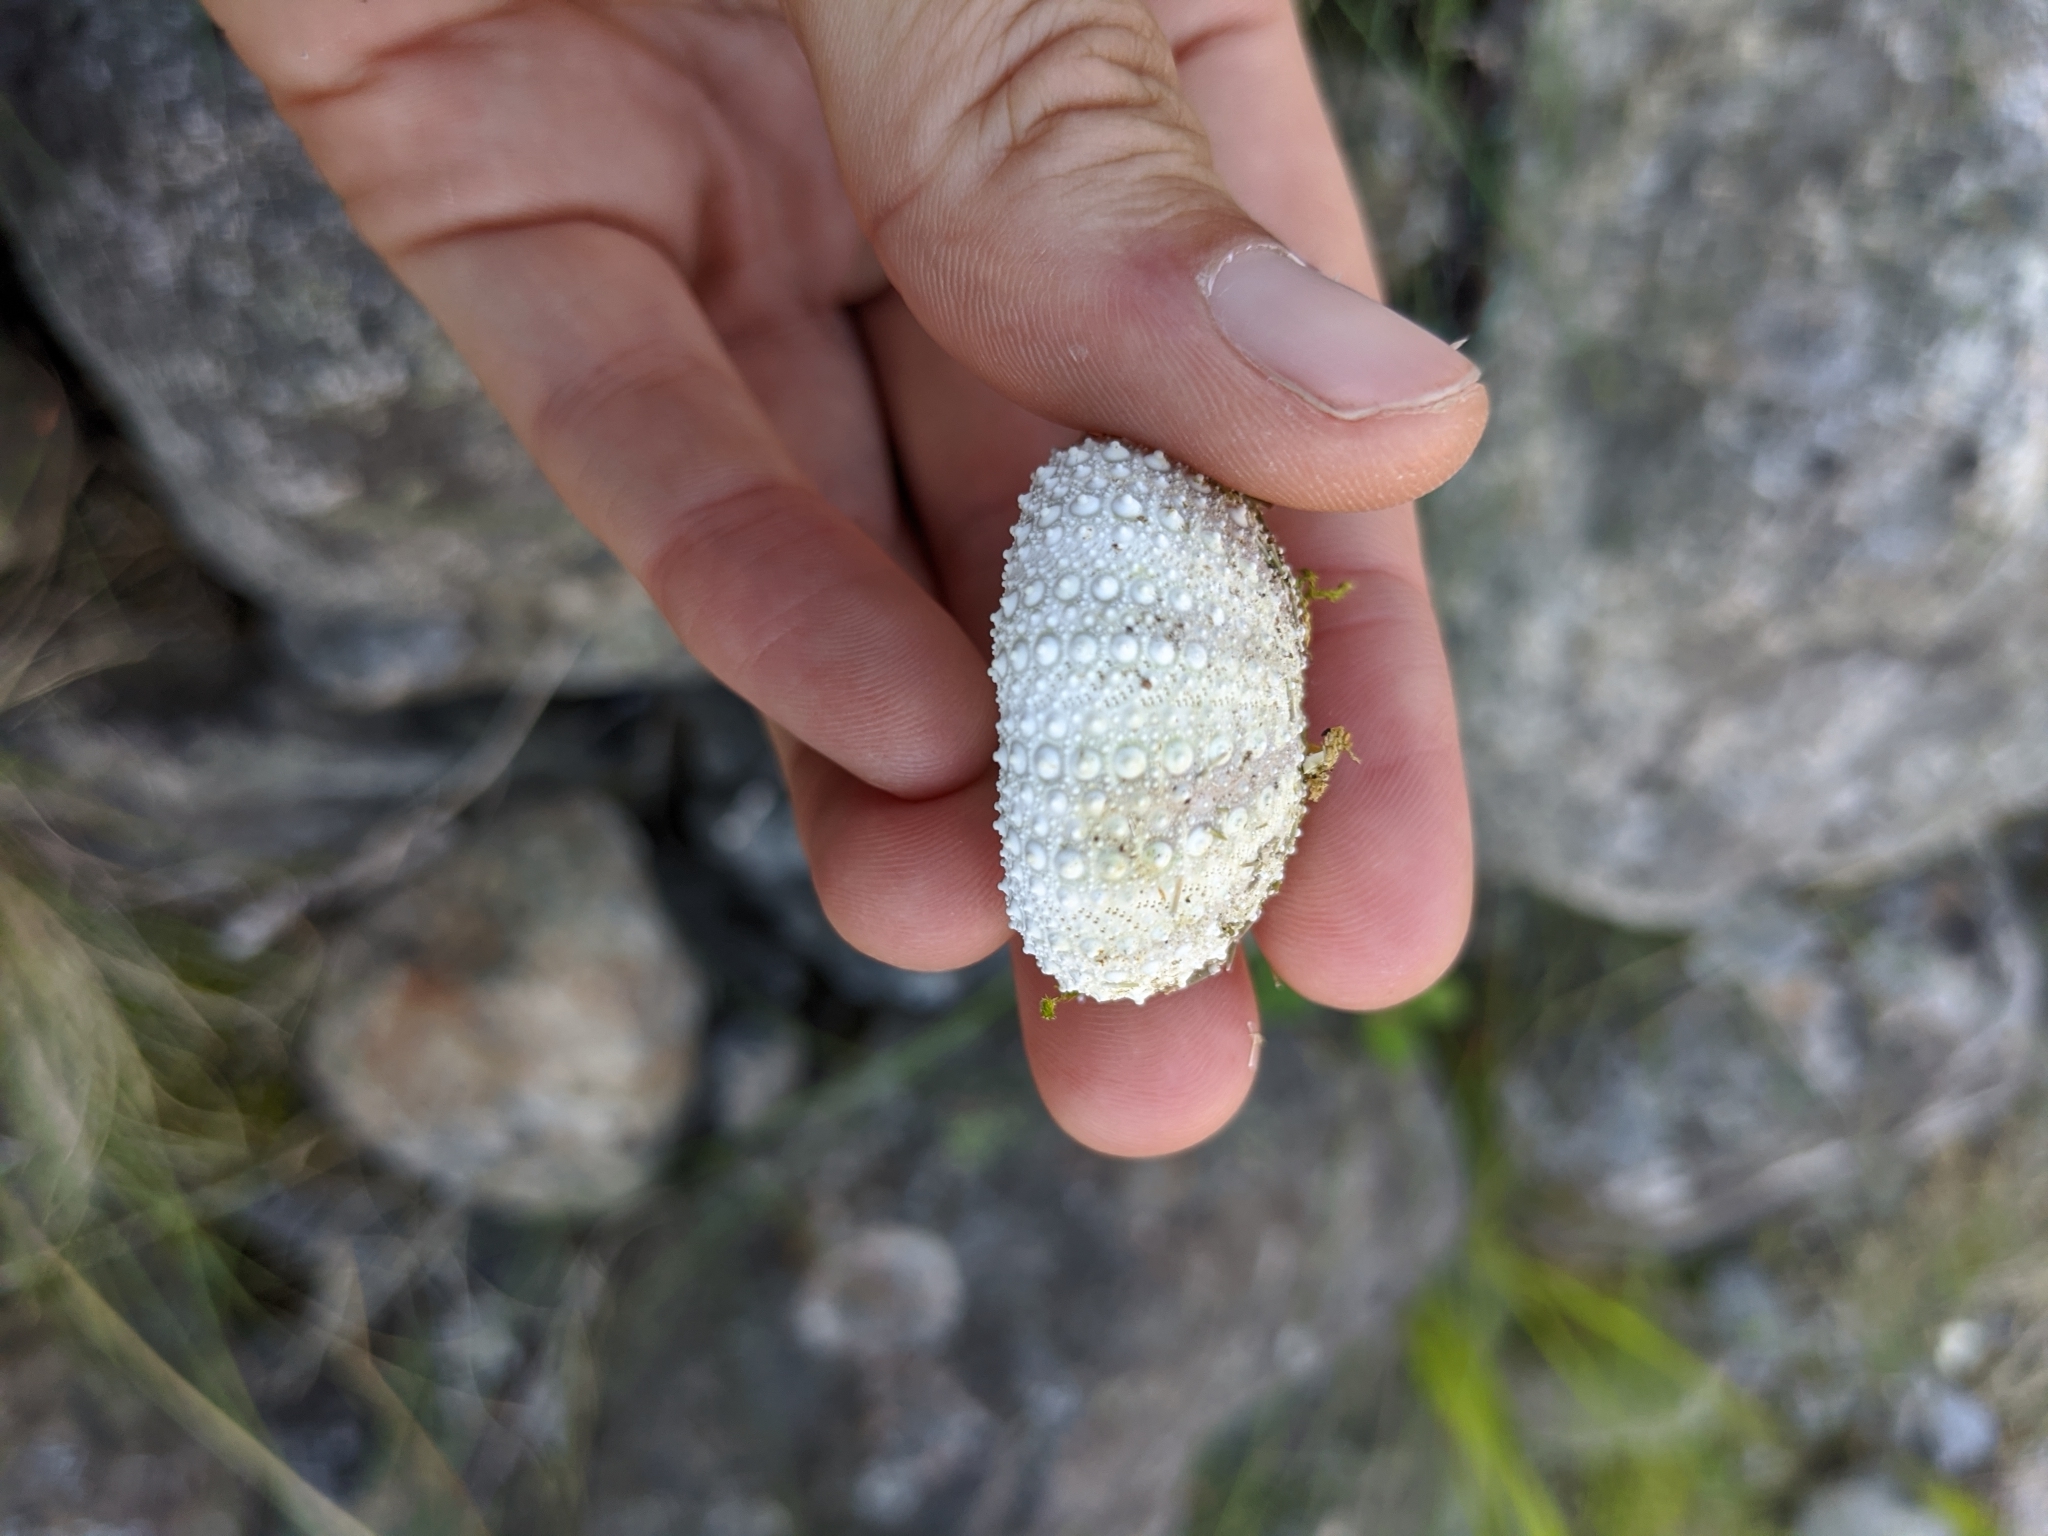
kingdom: Animalia
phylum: Echinodermata
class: Echinoidea
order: Camarodonta
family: Strongylocentrotidae
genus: Strongylocentrotus
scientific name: Strongylocentrotus droebachiensis
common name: Northern sea urchin
